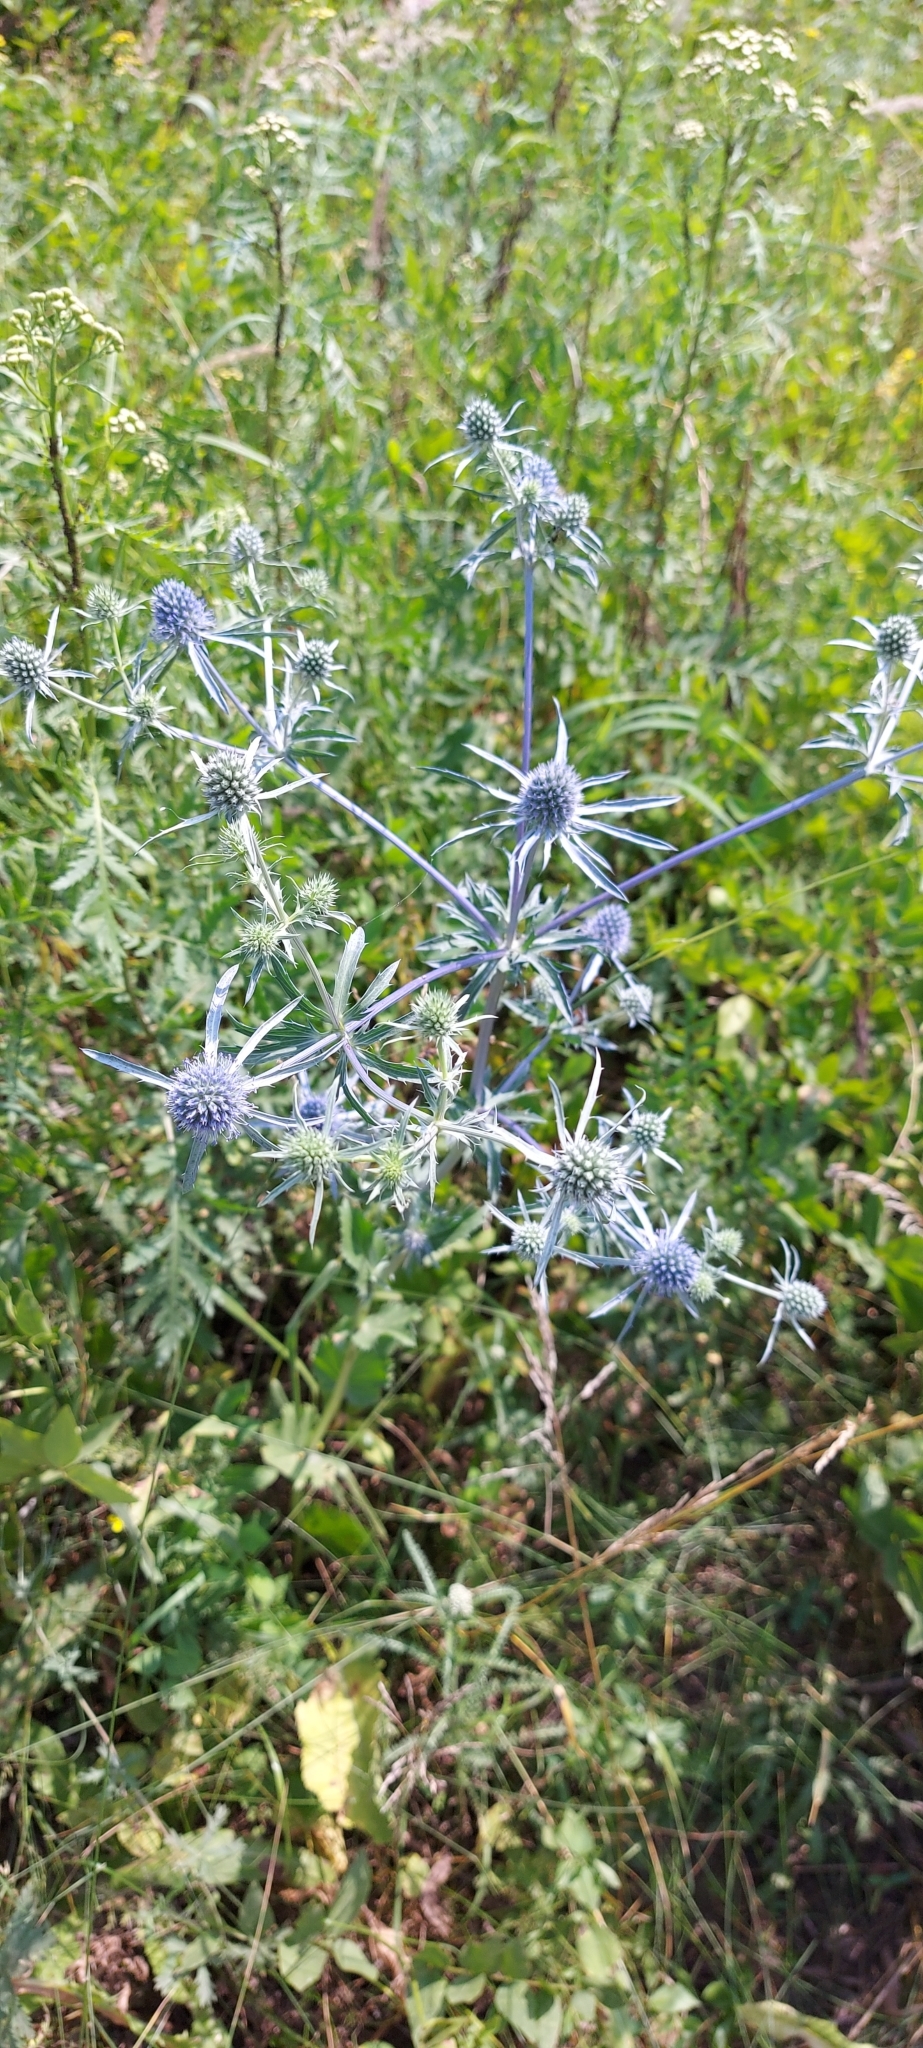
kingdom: Plantae
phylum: Tracheophyta
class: Magnoliopsida
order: Apiales
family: Apiaceae
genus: Eryngium
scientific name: Eryngium planum
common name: Blue eryngo
